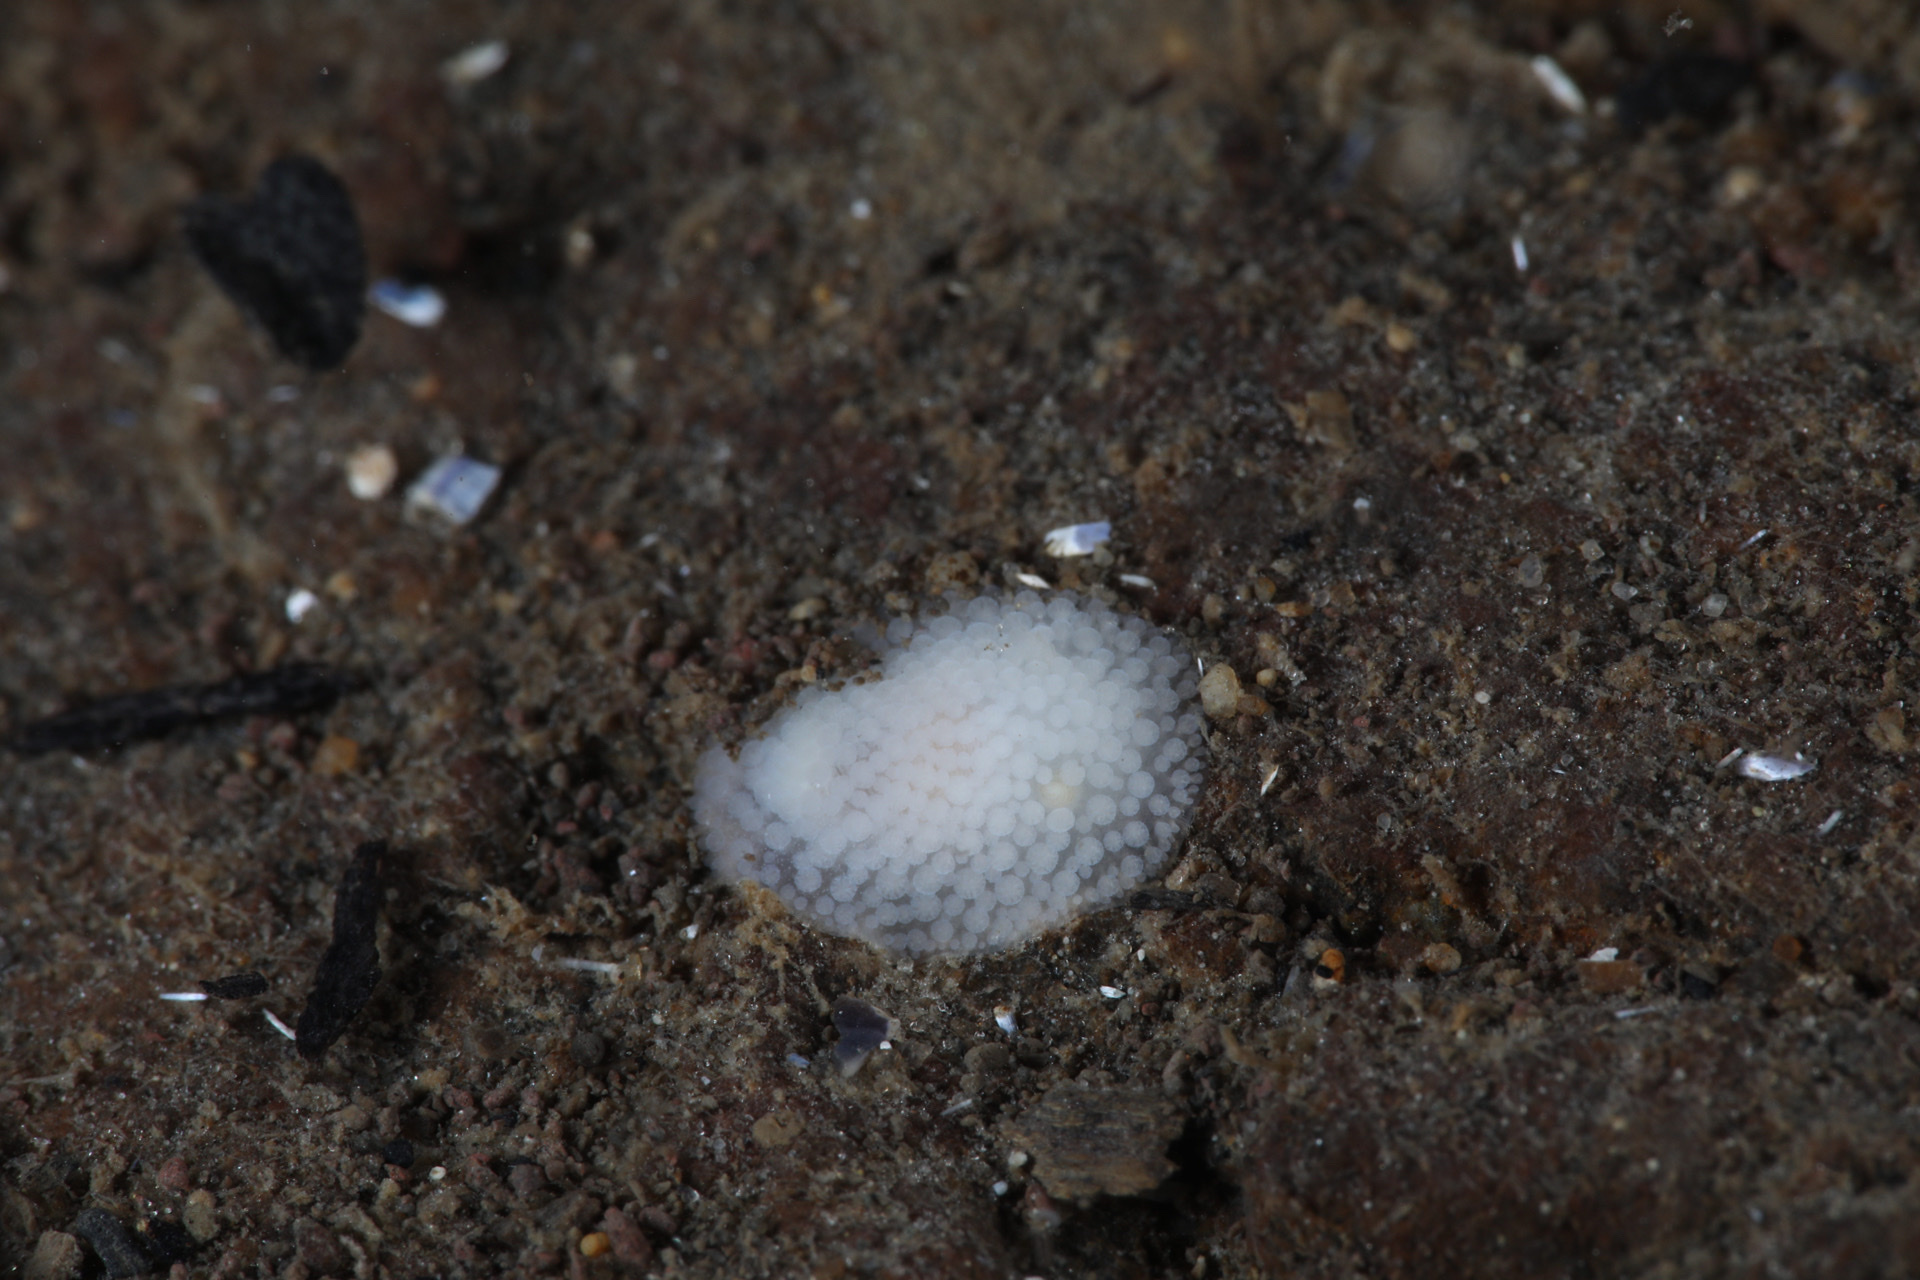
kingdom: Animalia
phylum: Mollusca
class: Gastropoda
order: Nudibranchia
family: Onchidorididae
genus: Onchidoris
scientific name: Onchidoris muricata
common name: Rough doris
